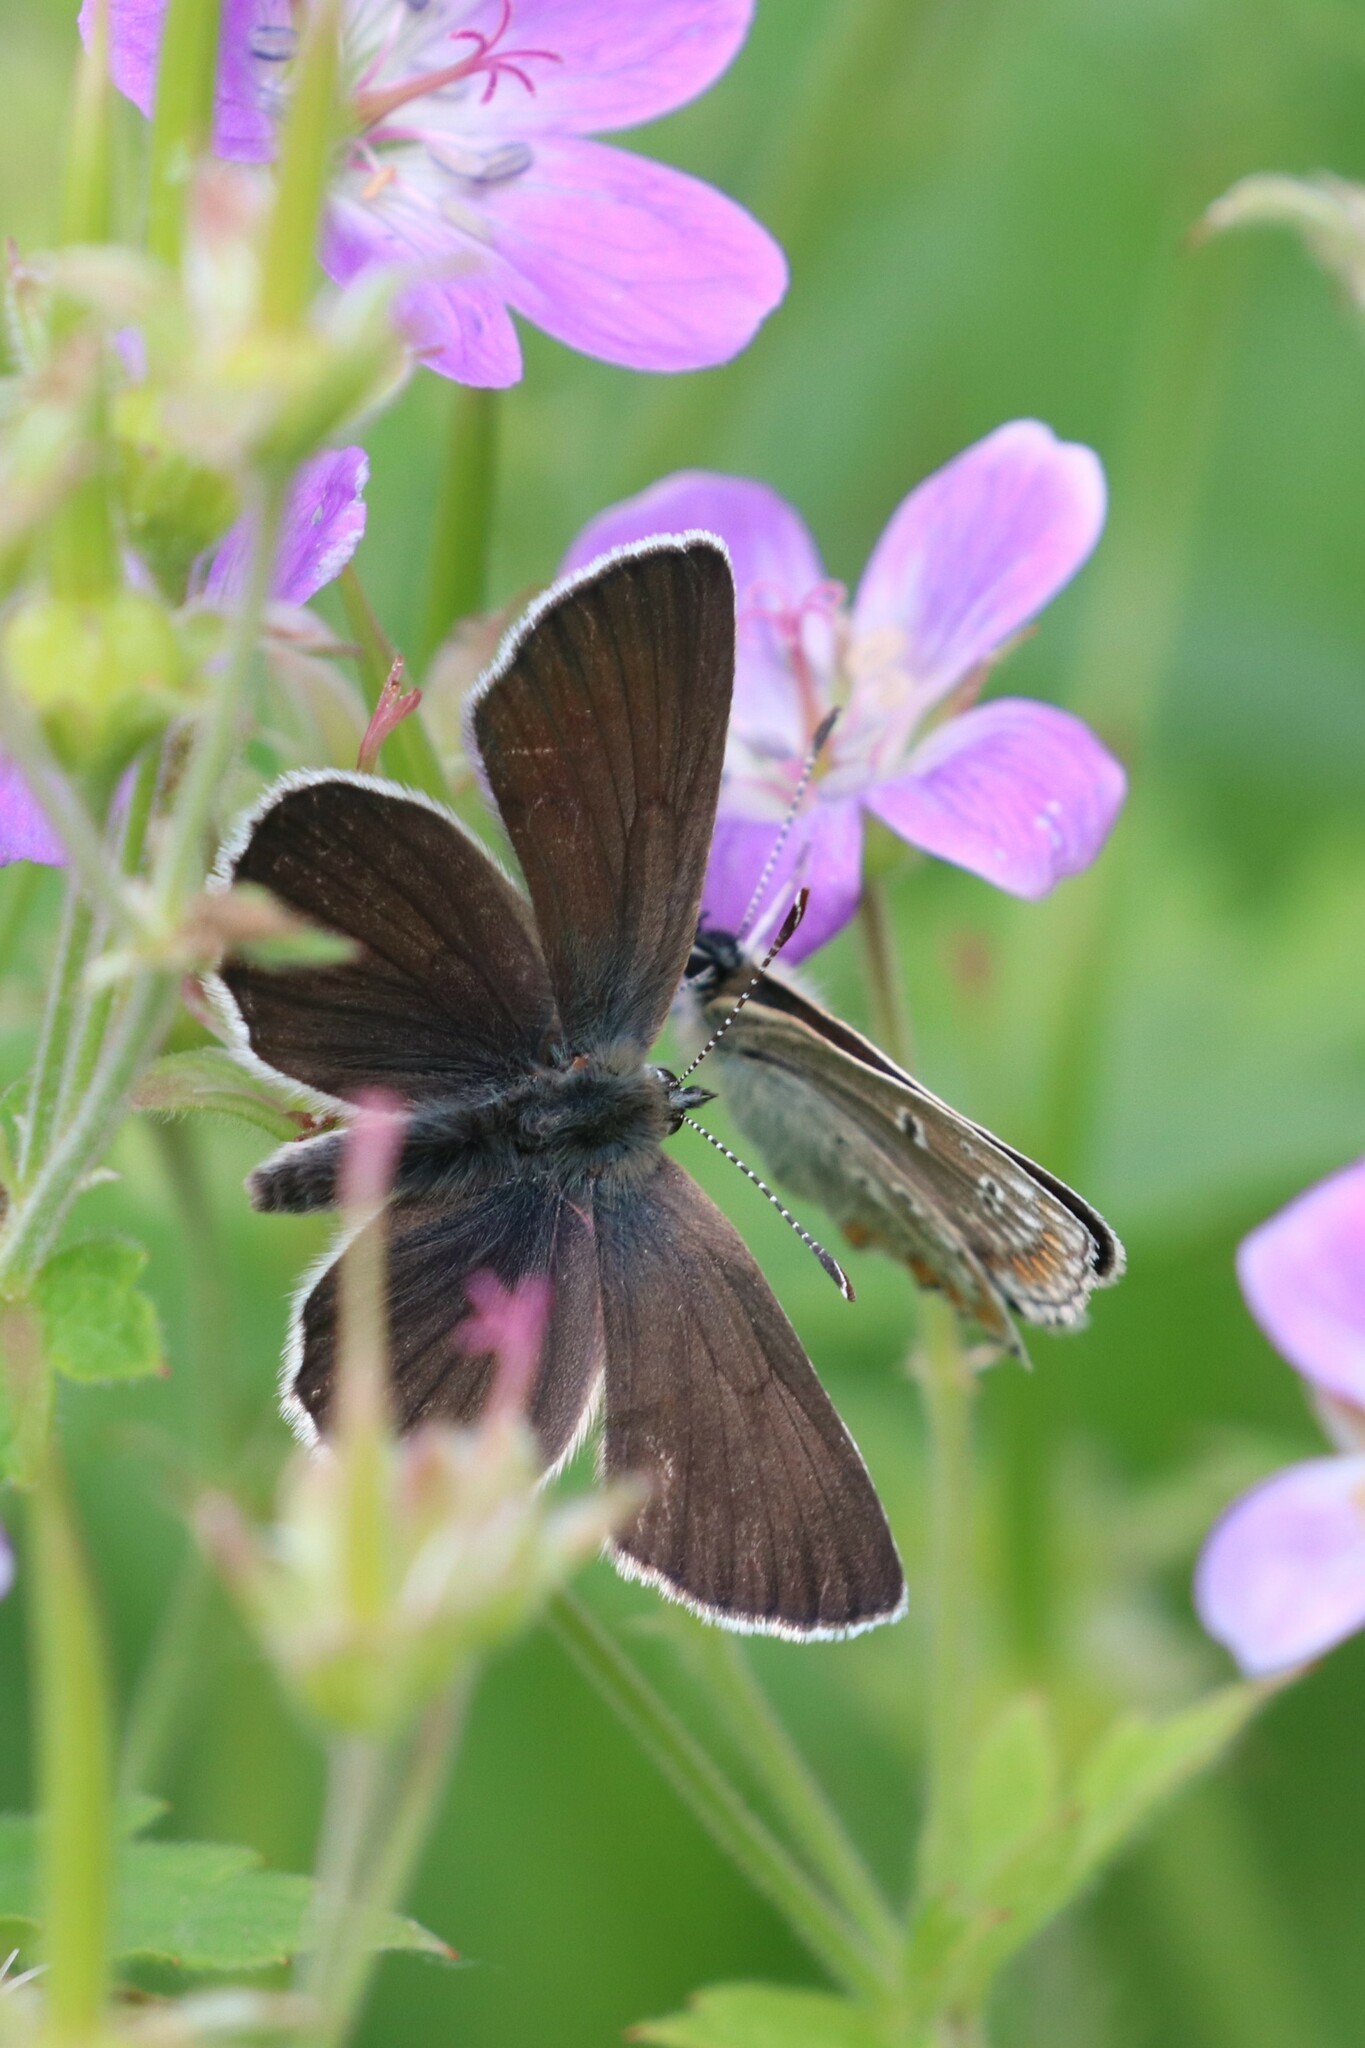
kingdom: Animalia
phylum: Arthropoda
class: Insecta
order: Lepidoptera
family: Lycaenidae
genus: Eumedonia
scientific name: Eumedonia eumedon
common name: Geranium argus
